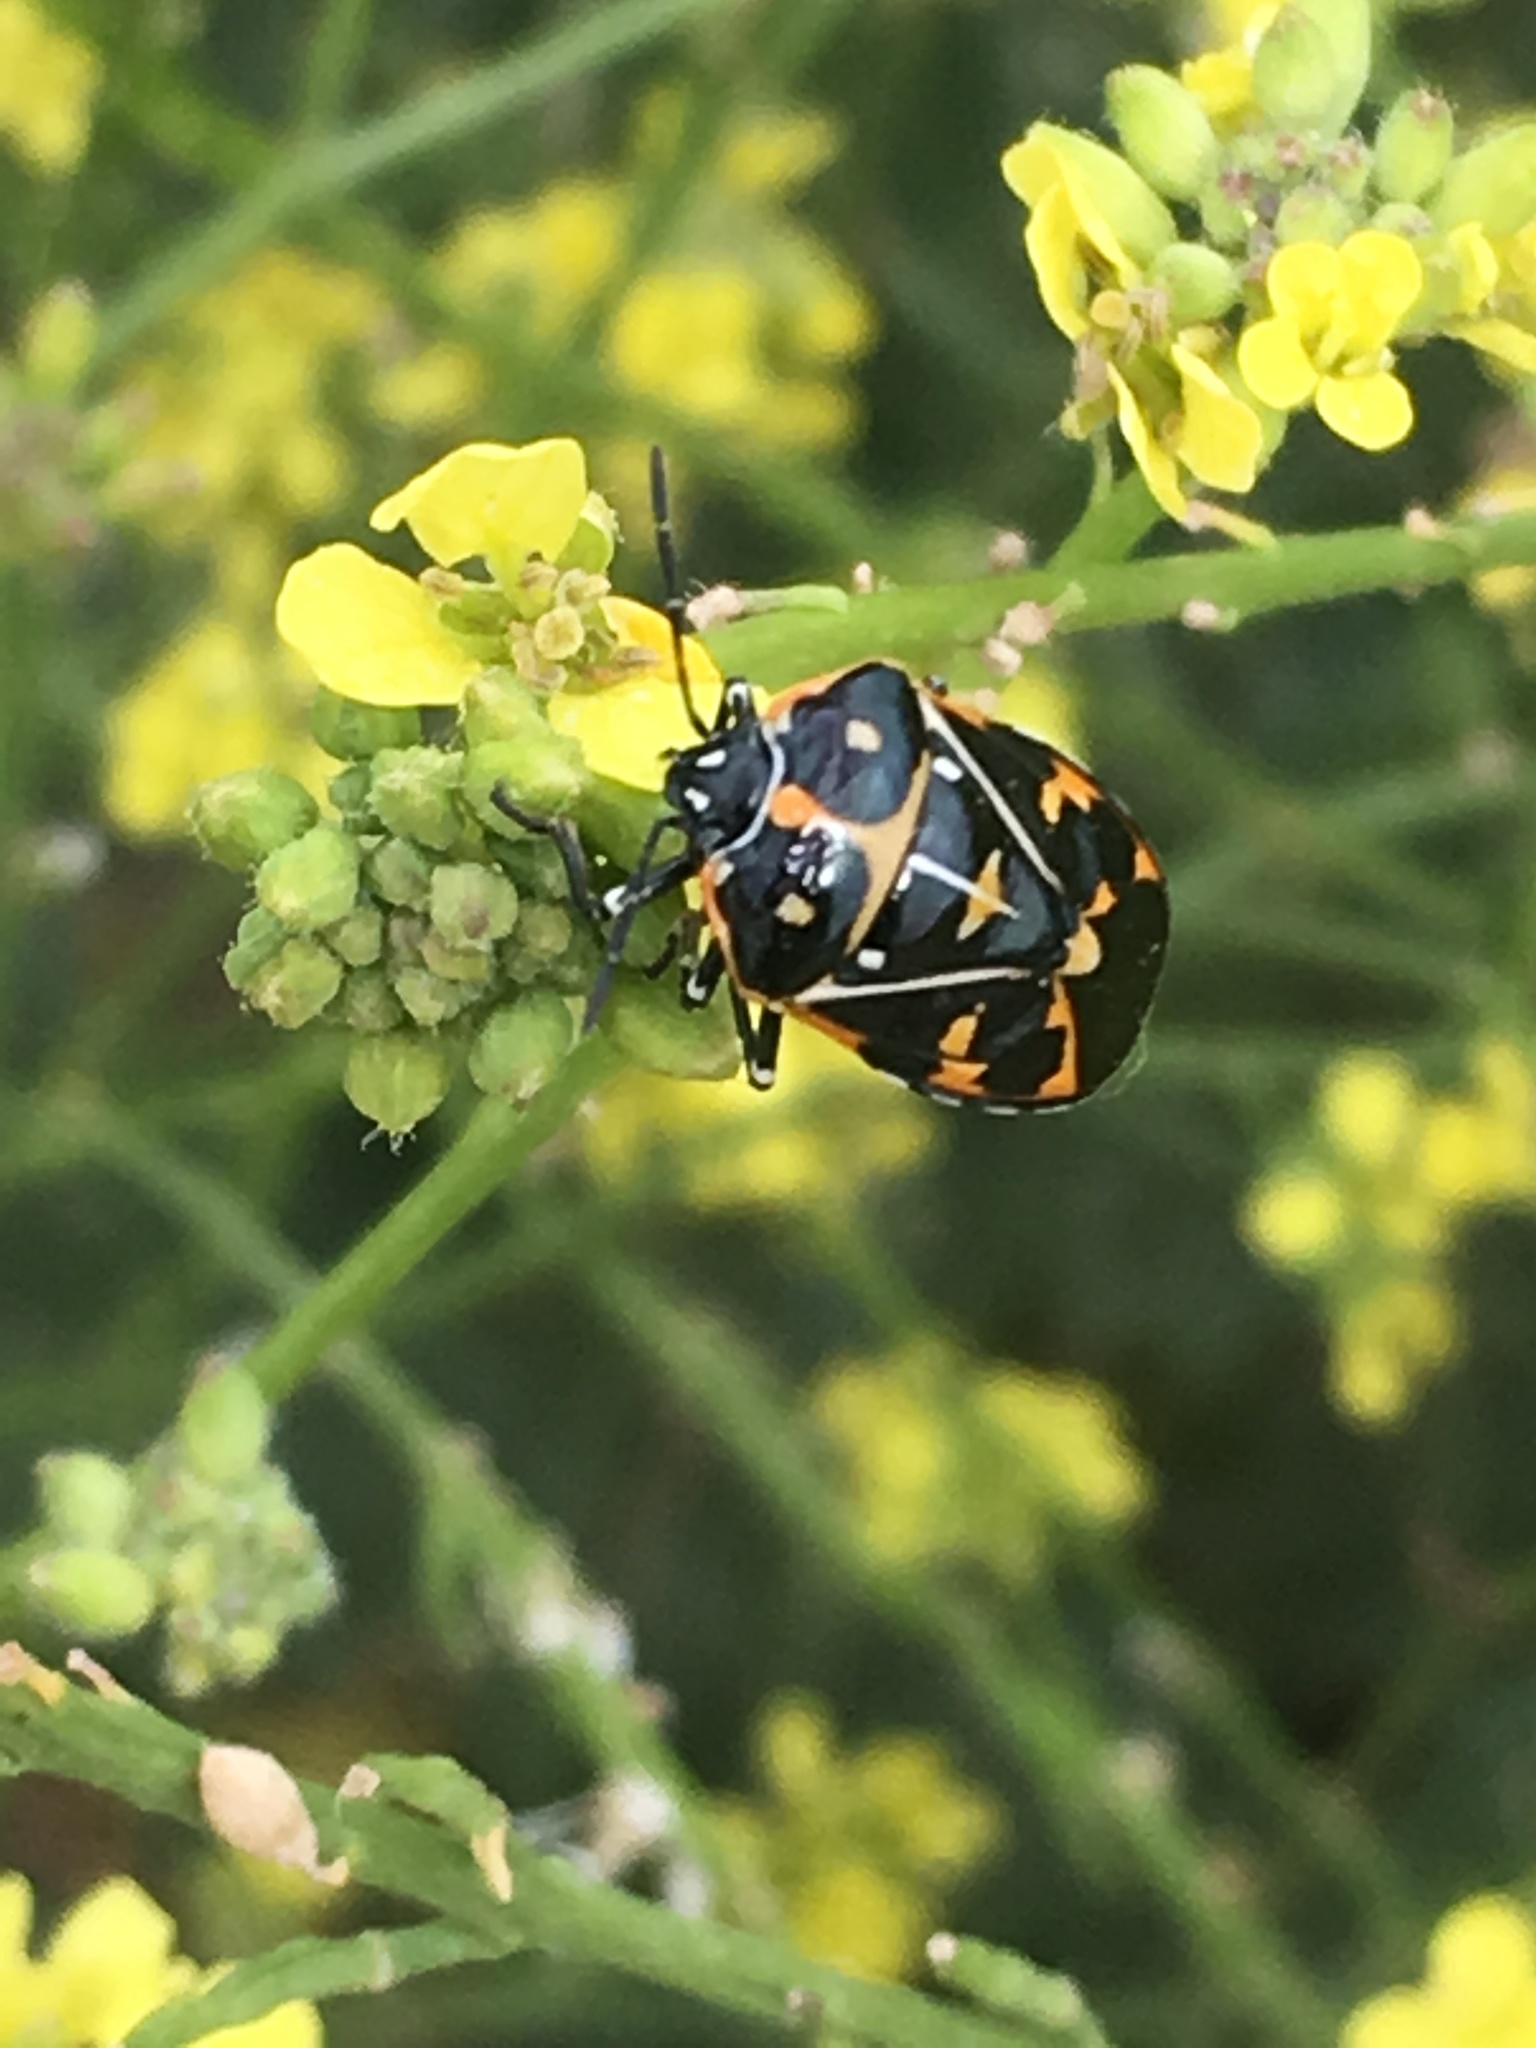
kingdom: Animalia
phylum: Arthropoda
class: Insecta
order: Hemiptera
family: Pentatomidae
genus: Murgantia
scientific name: Murgantia histrionica
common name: Harlequin bug
